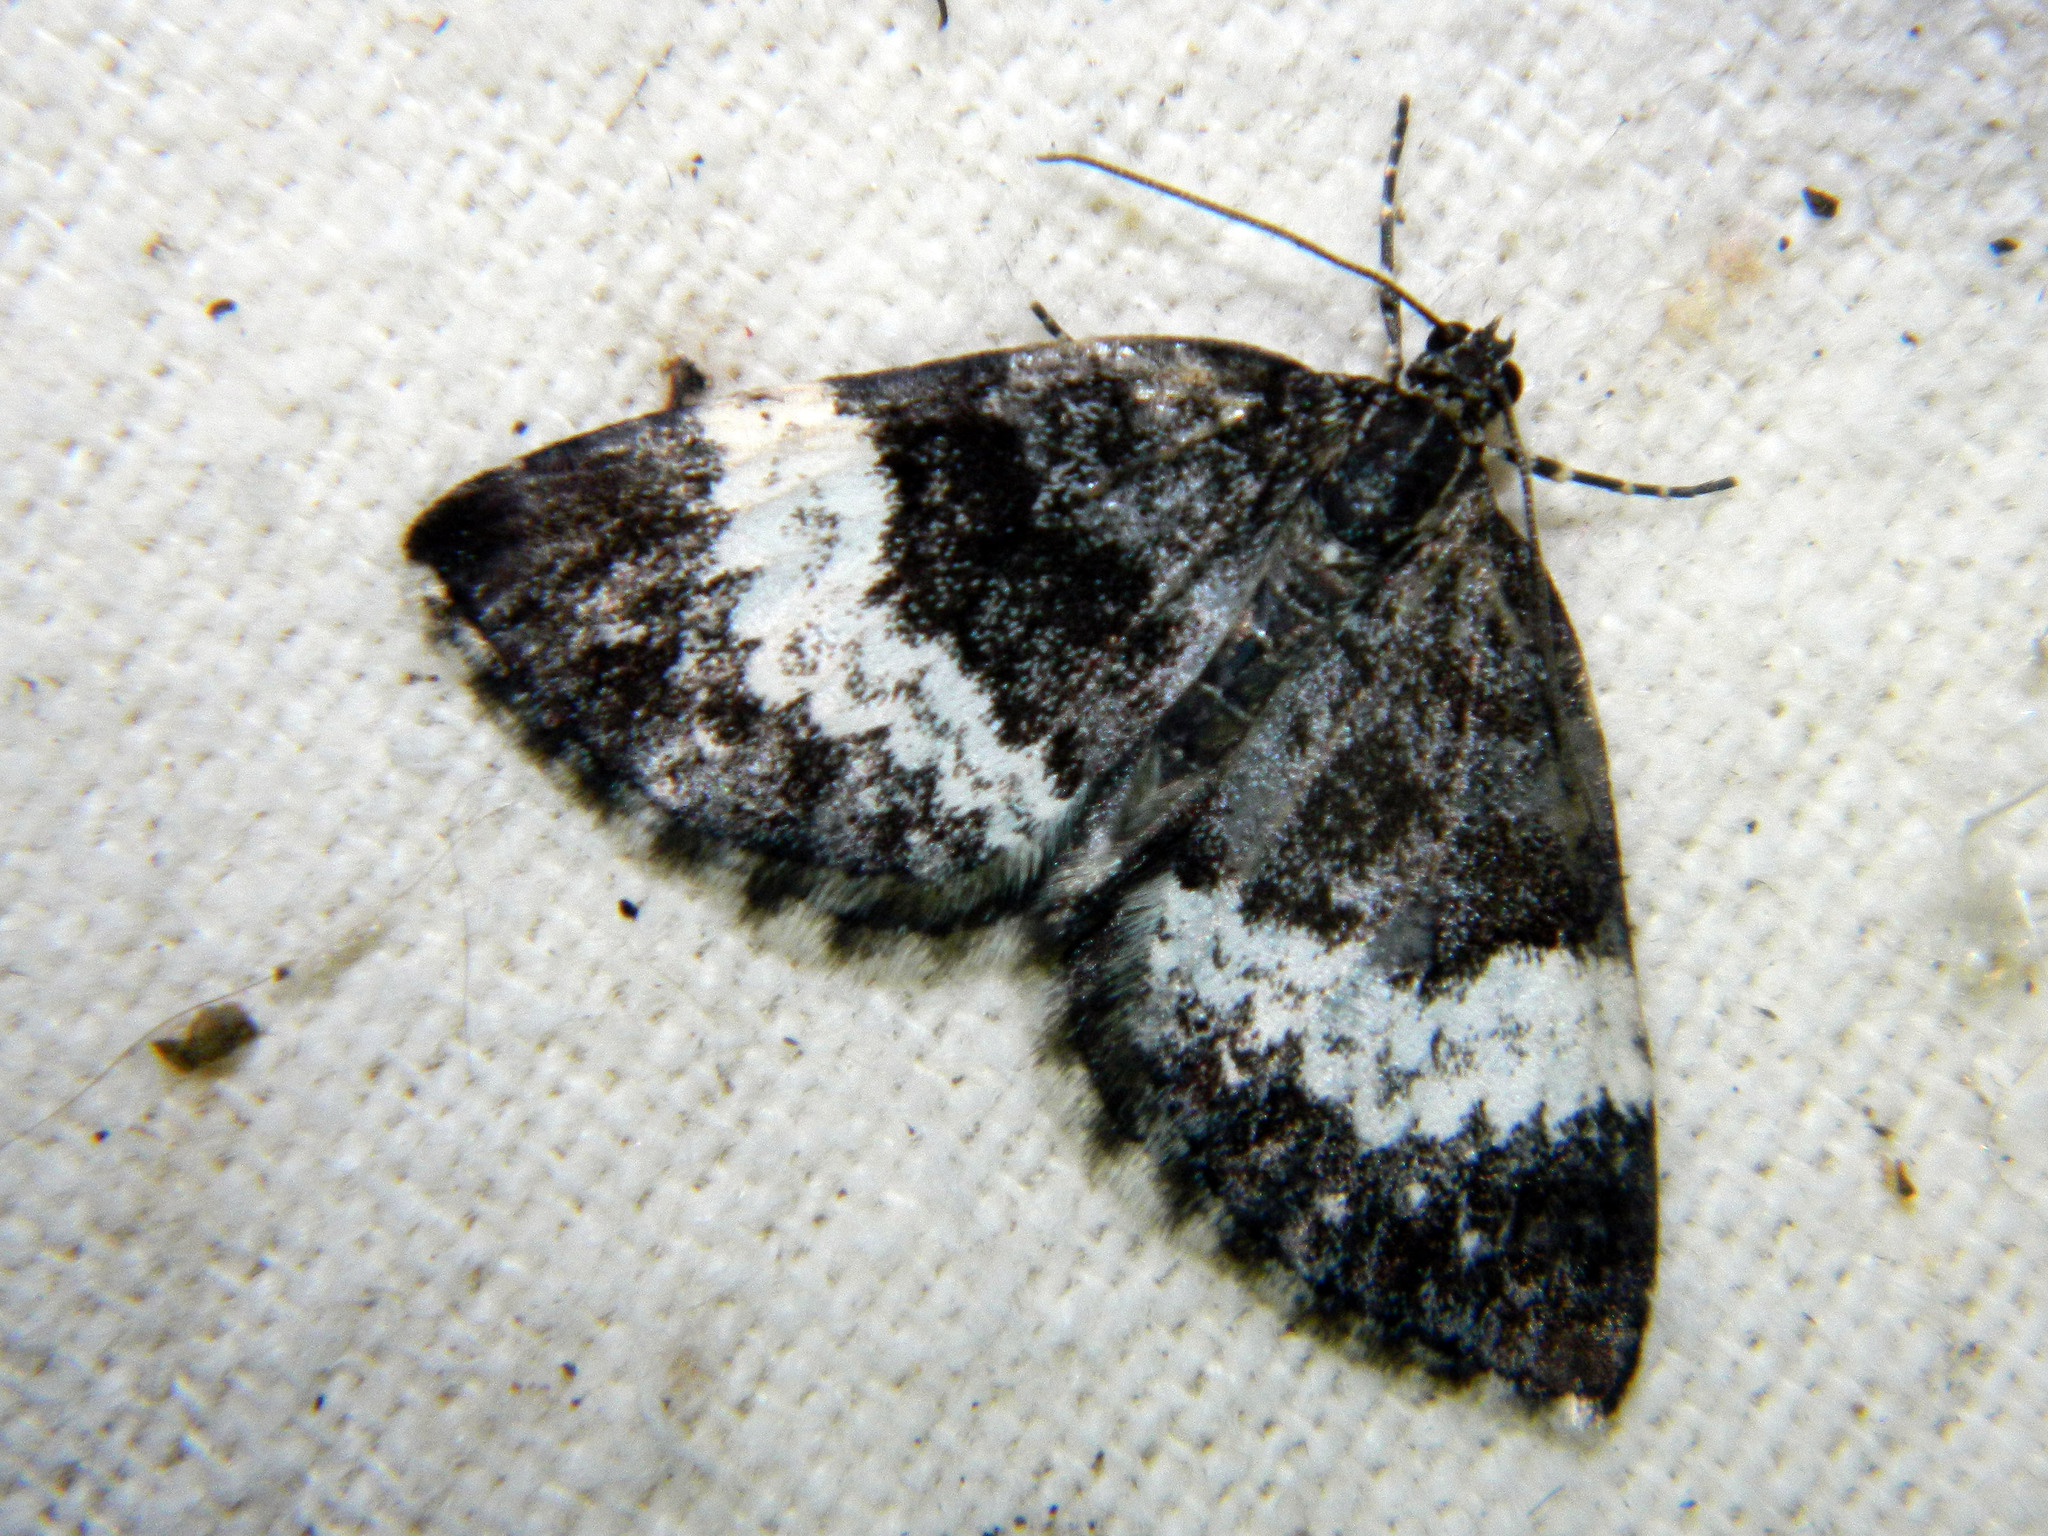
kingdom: Animalia
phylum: Arthropoda
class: Insecta
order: Lepidoptera
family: Geometridae
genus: Spargania
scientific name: Spargania luctuata
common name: White-banded carpet
